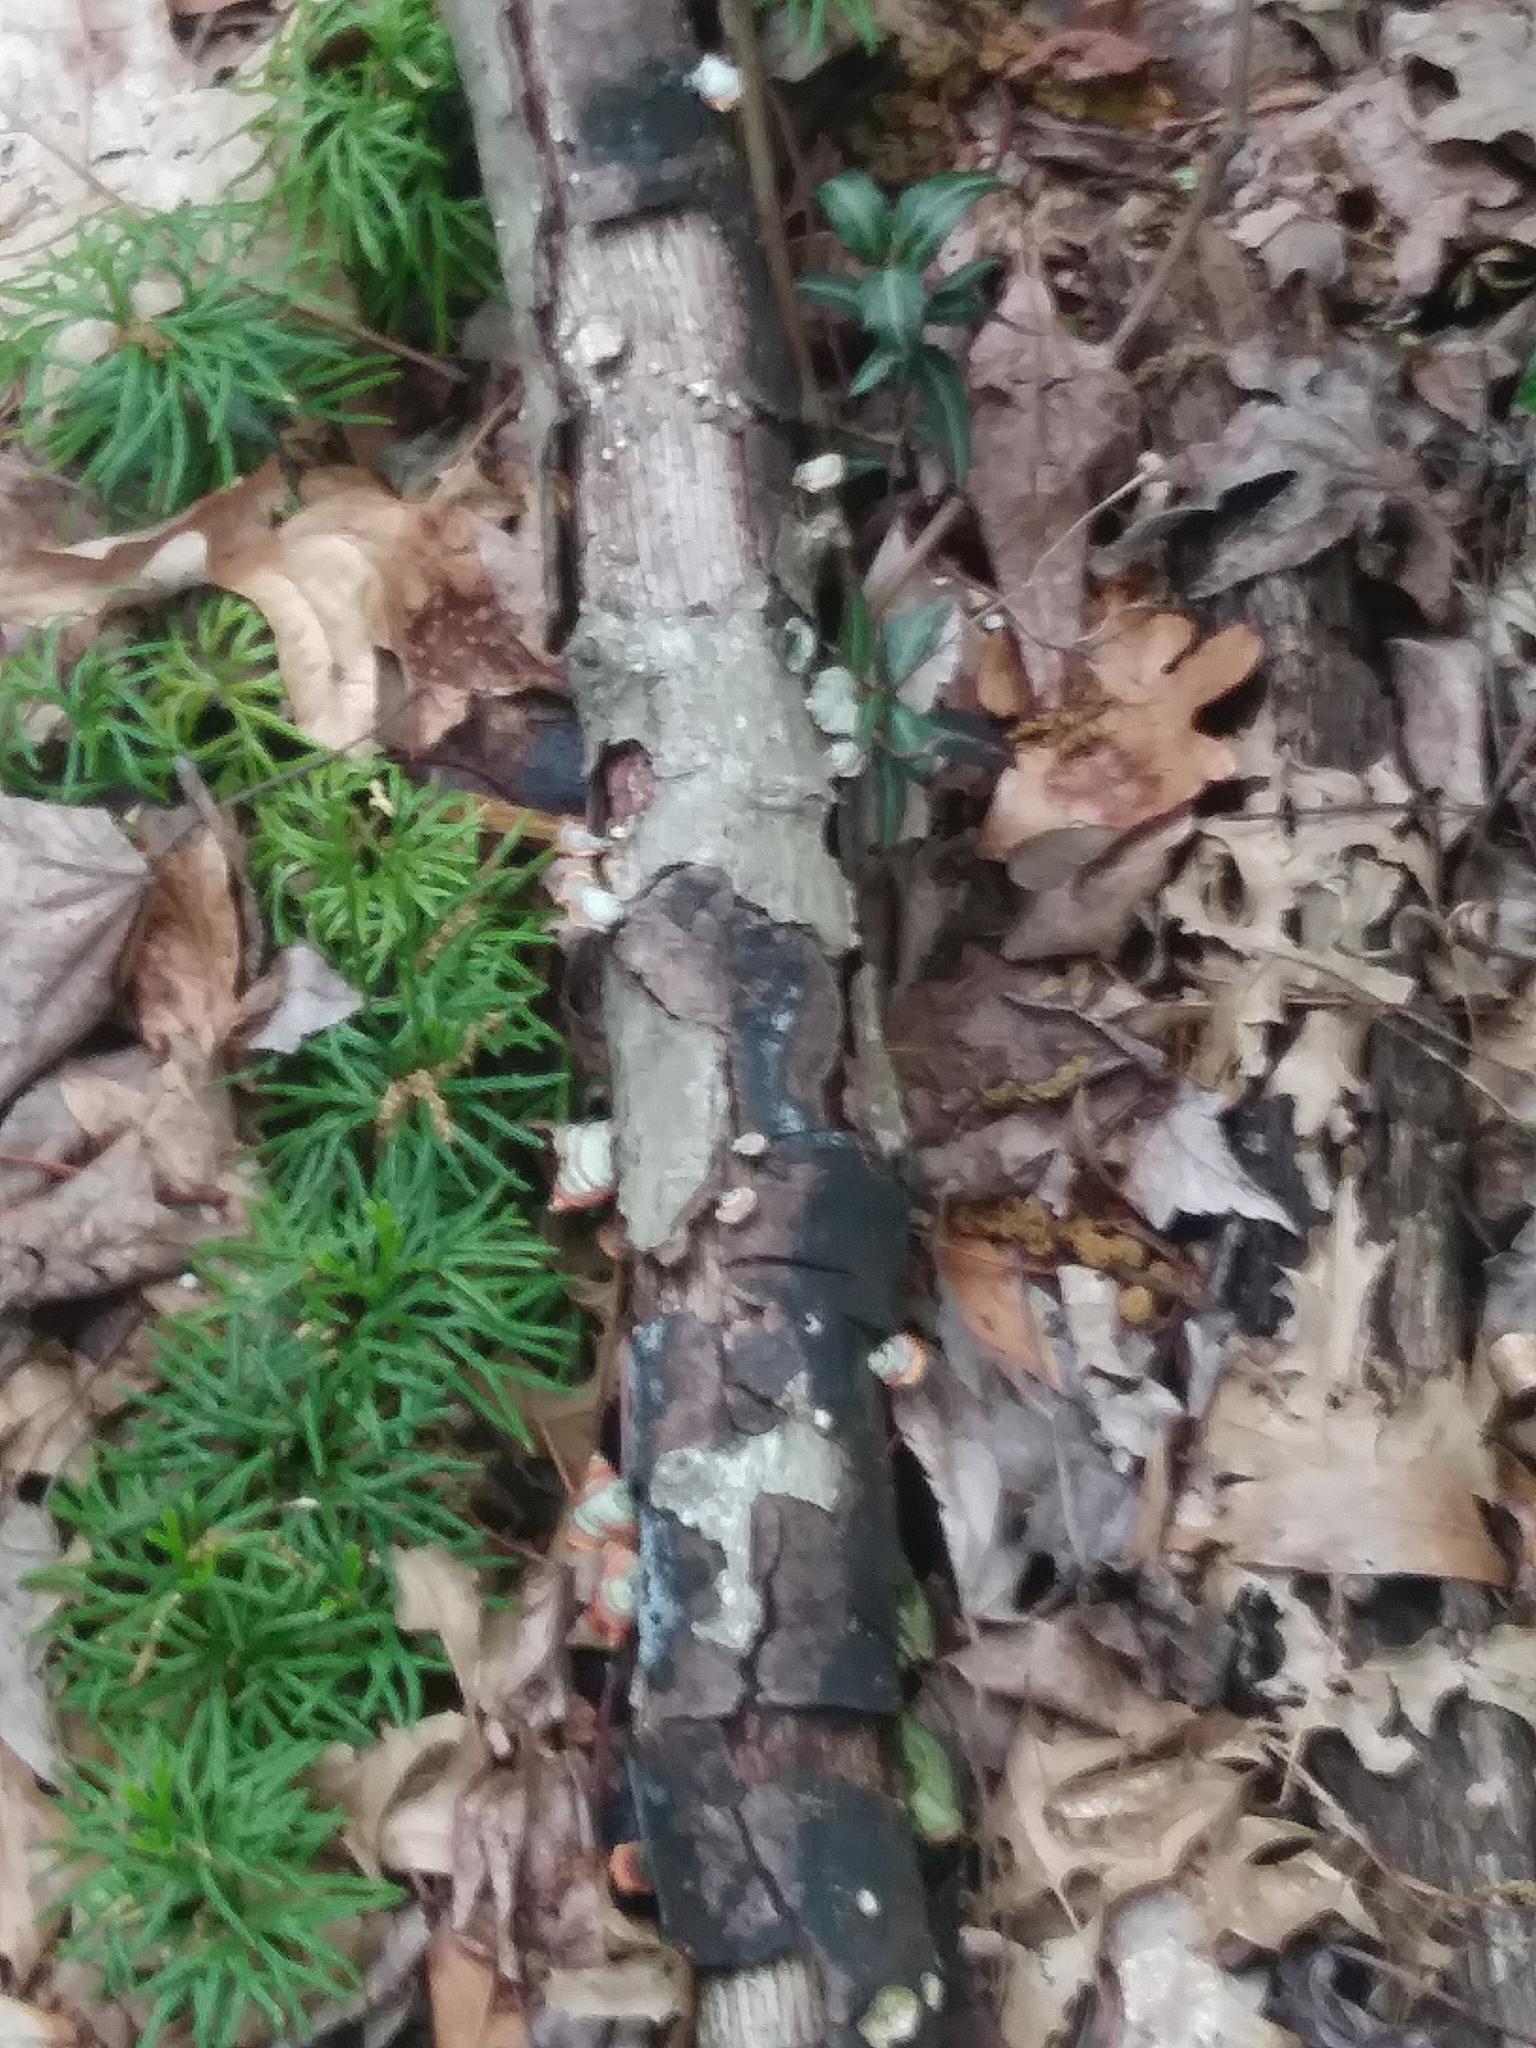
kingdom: Plantae
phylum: Tracheophyta
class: Magnoliopsida
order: Ericales
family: Ericaceae
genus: Chimaphila
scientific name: Chimaphila maculata
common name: Spotted pipsissewa
